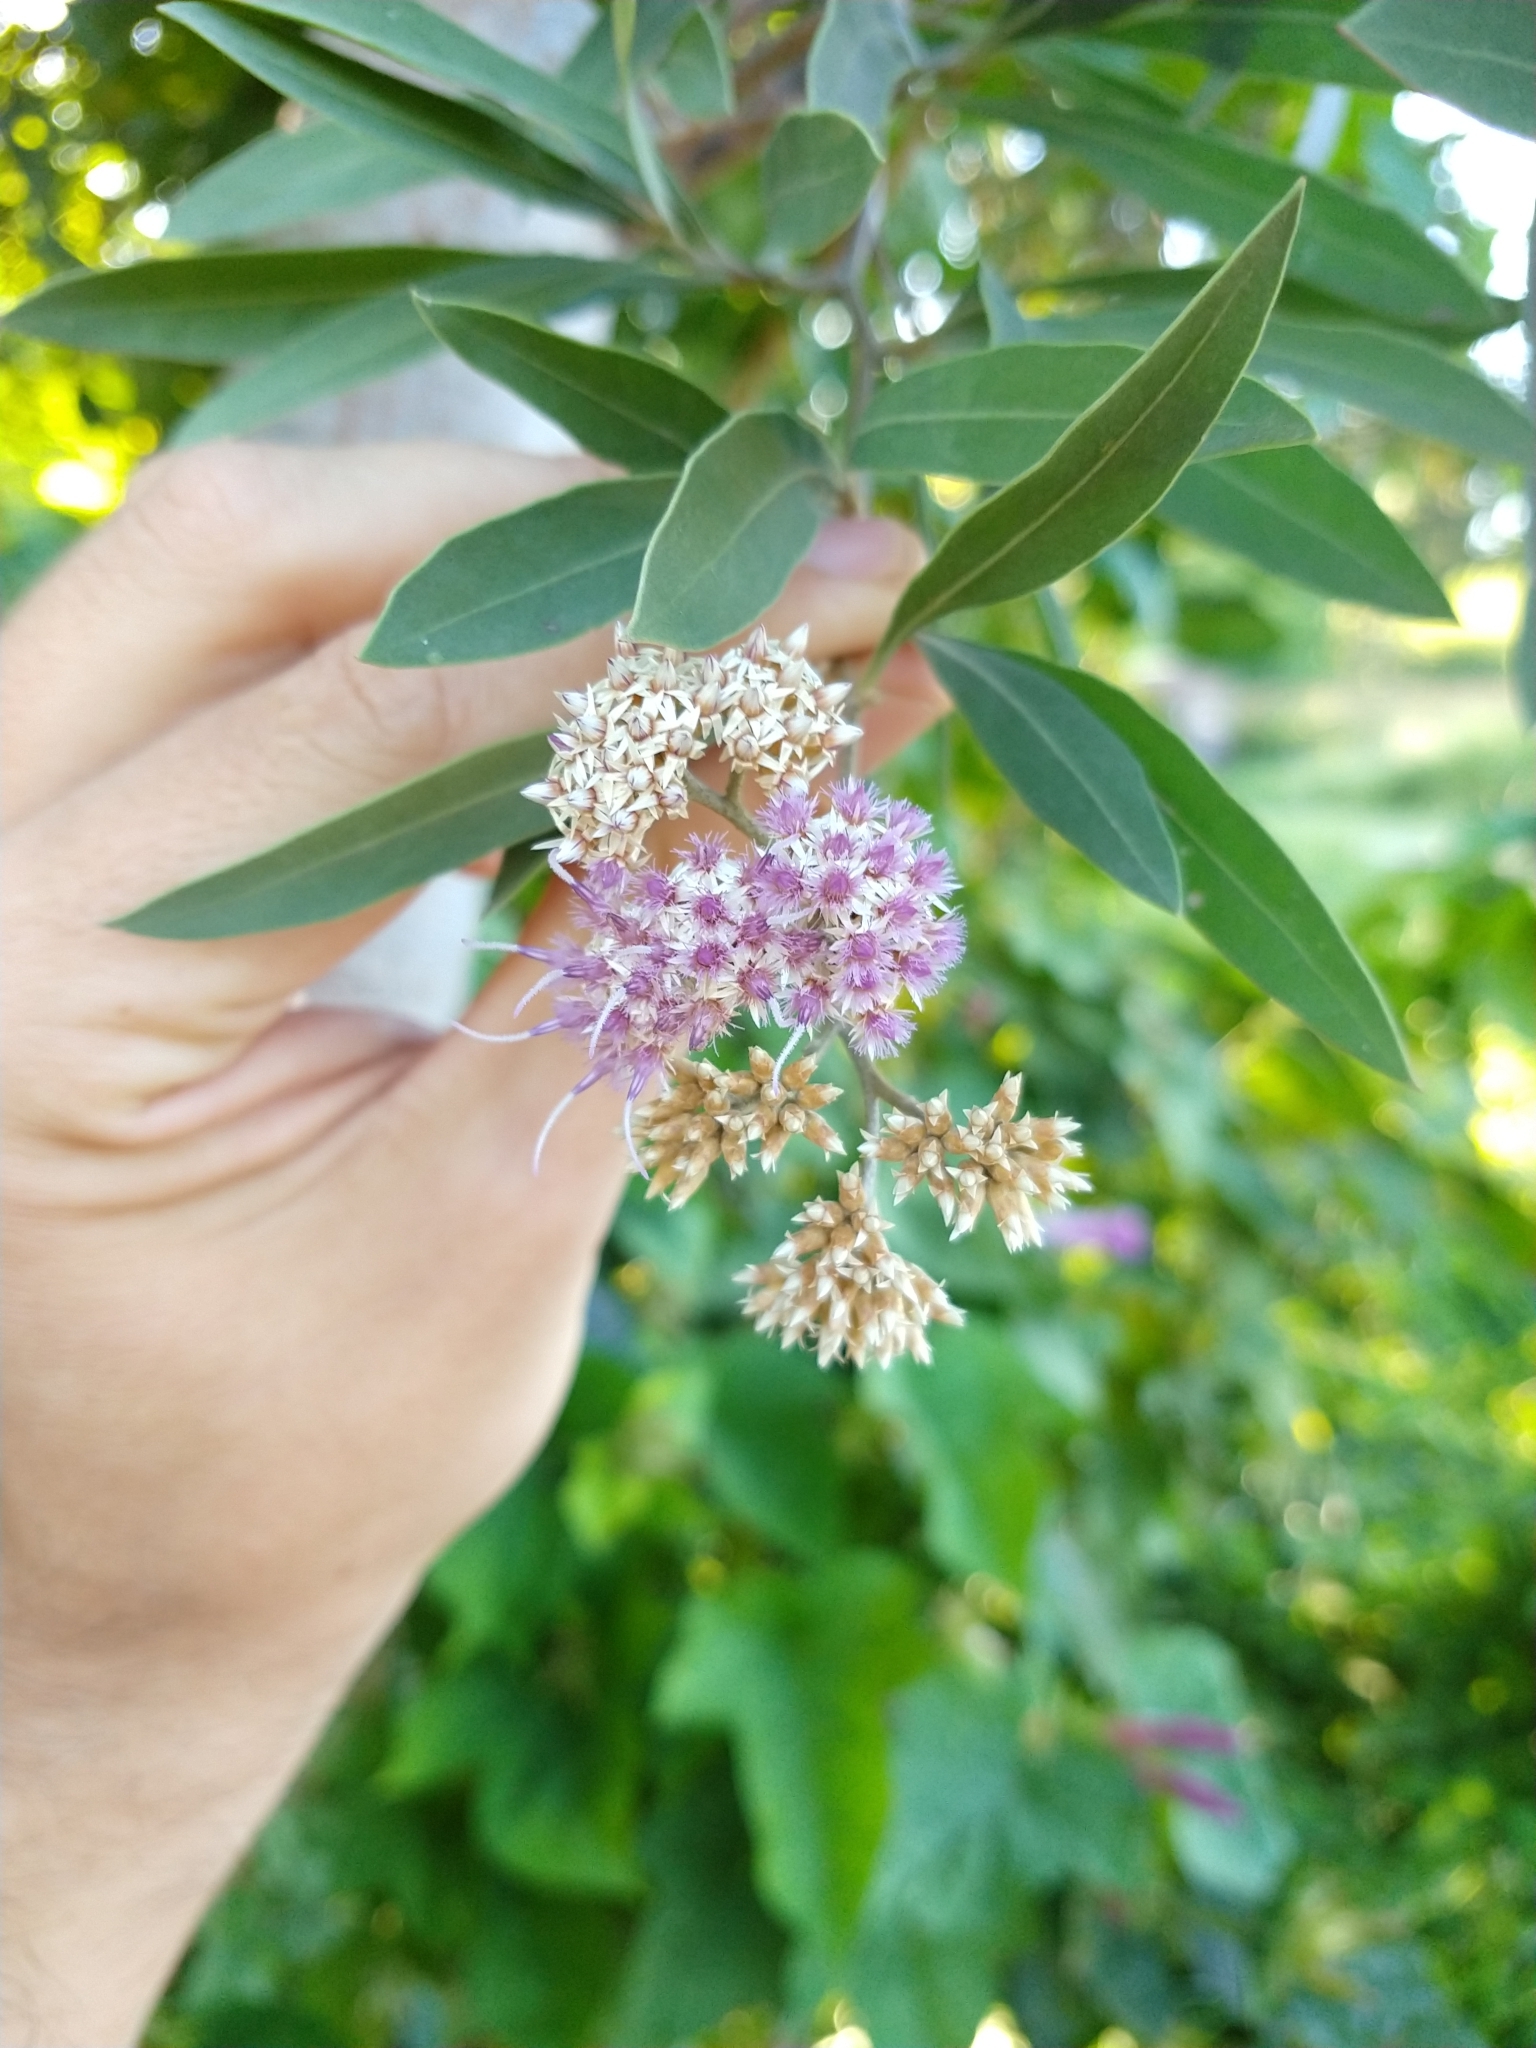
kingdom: Plantae
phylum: Tracheophyta
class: Magnoliopsida
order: Asterales
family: Asteraceae
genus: Tessaria
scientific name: Tessaria integrifolia
